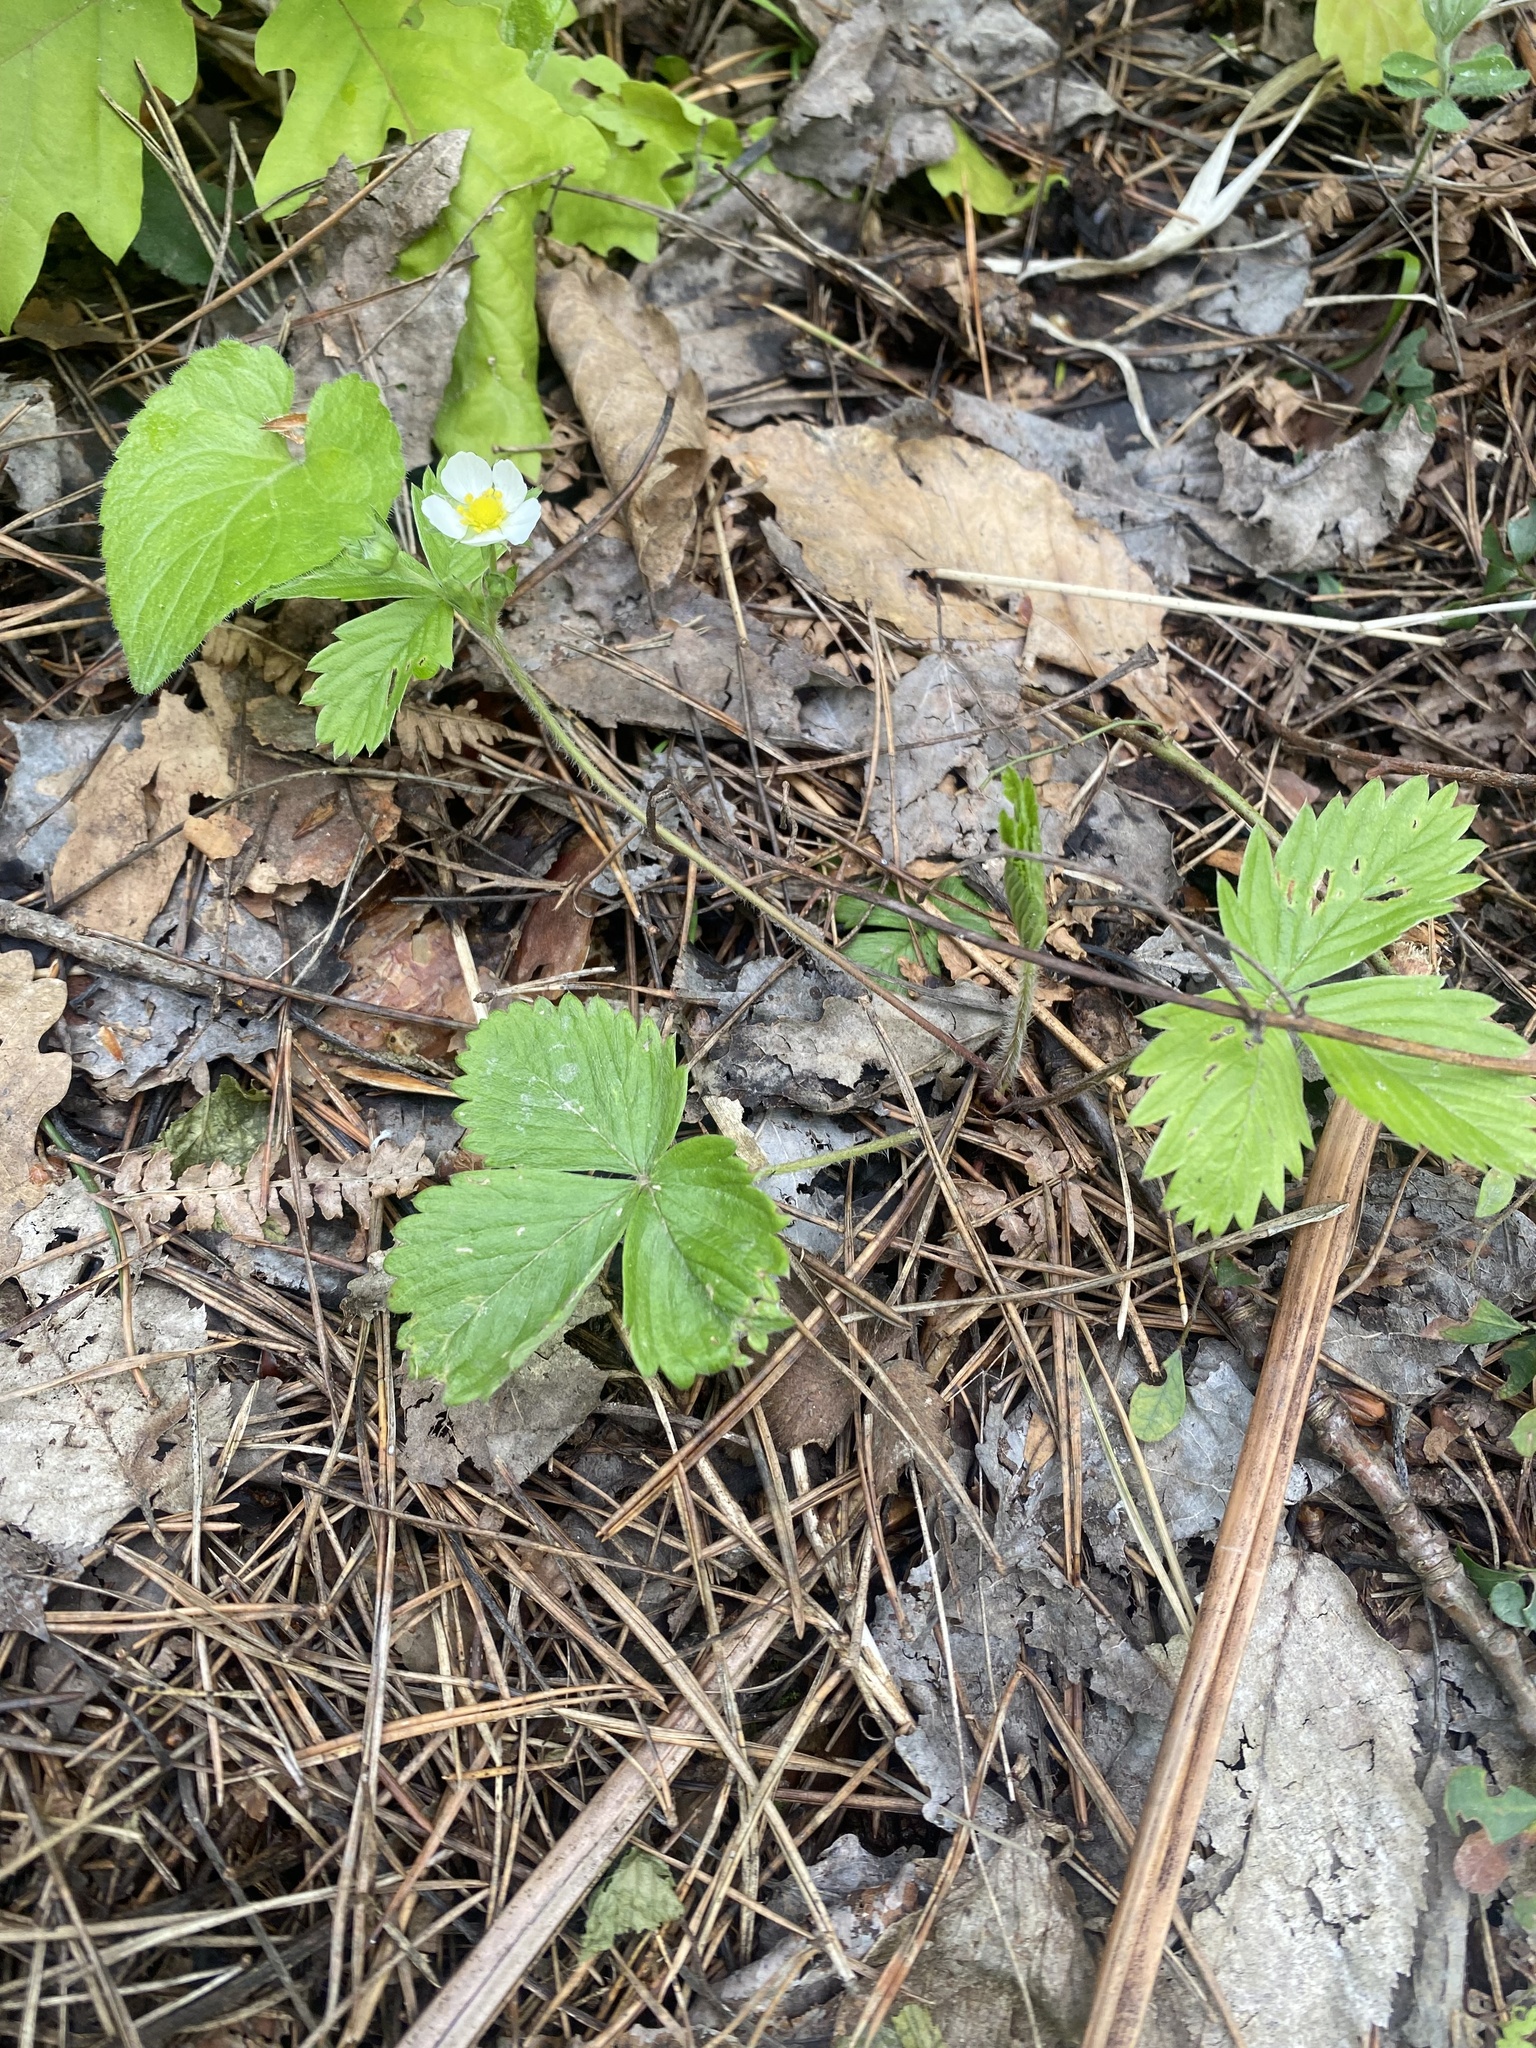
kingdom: Plantae
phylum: Tracheophyta
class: Magnoliopsida
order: Rosales
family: Rosaceae
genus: Fragaria
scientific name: Fragaria vesca
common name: Wild strawberry
